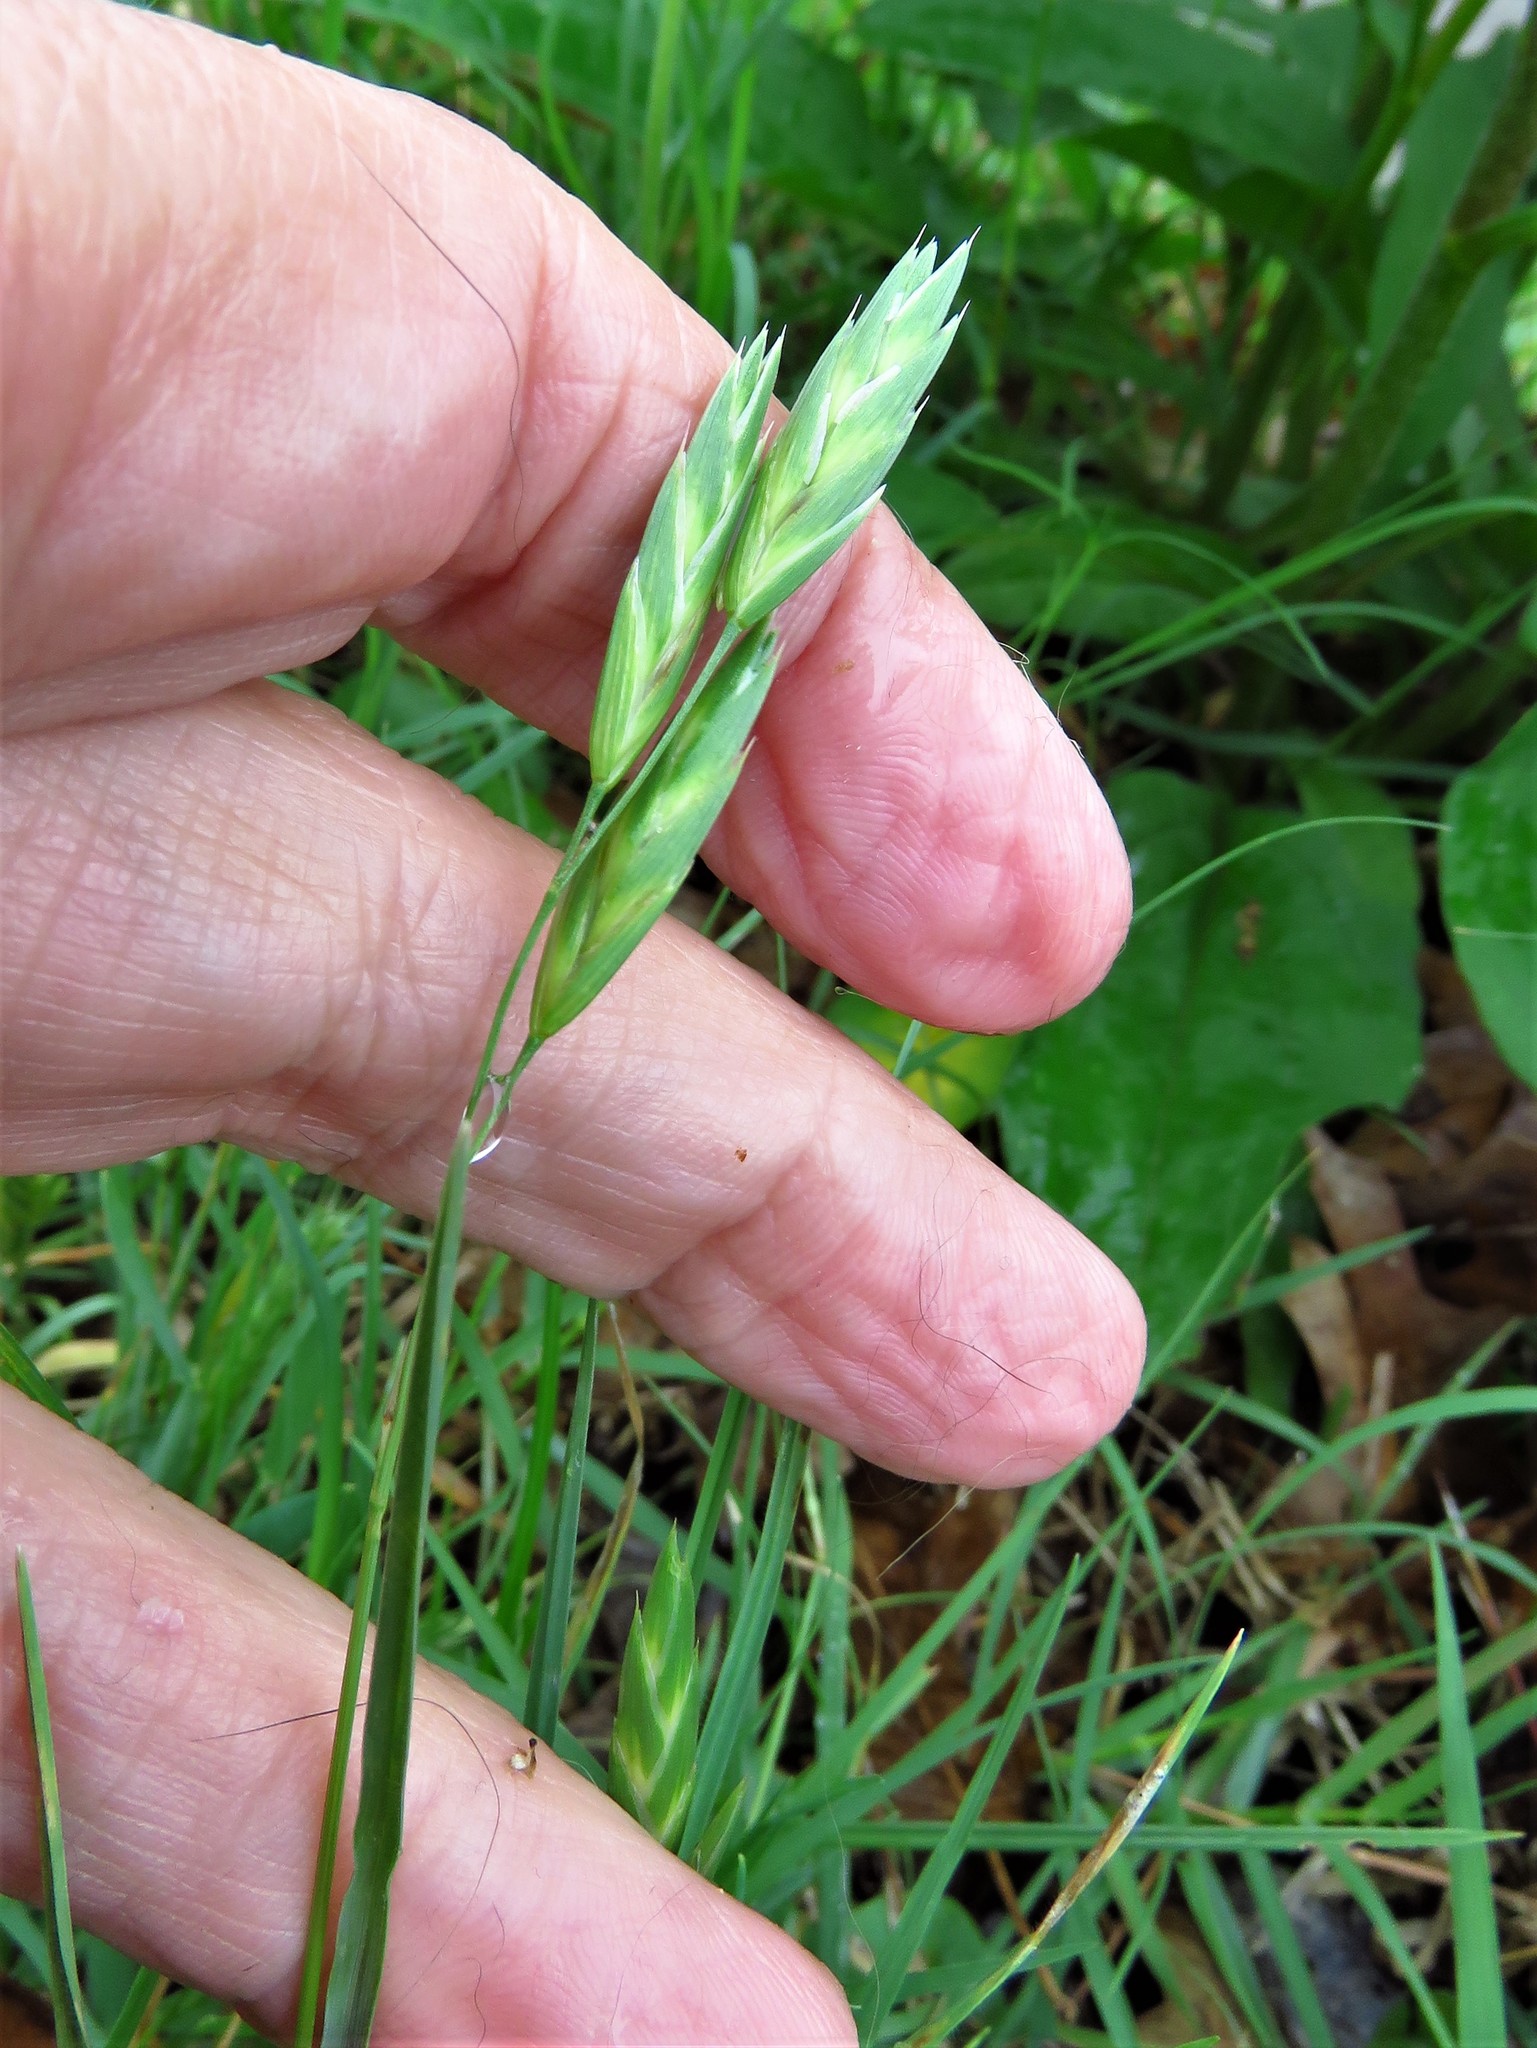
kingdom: Plantae
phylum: Tracheophyta
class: Liliopsida
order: Poales
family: Poaceae
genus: Bromus
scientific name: Bromus catharticus
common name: Rescuegrass
